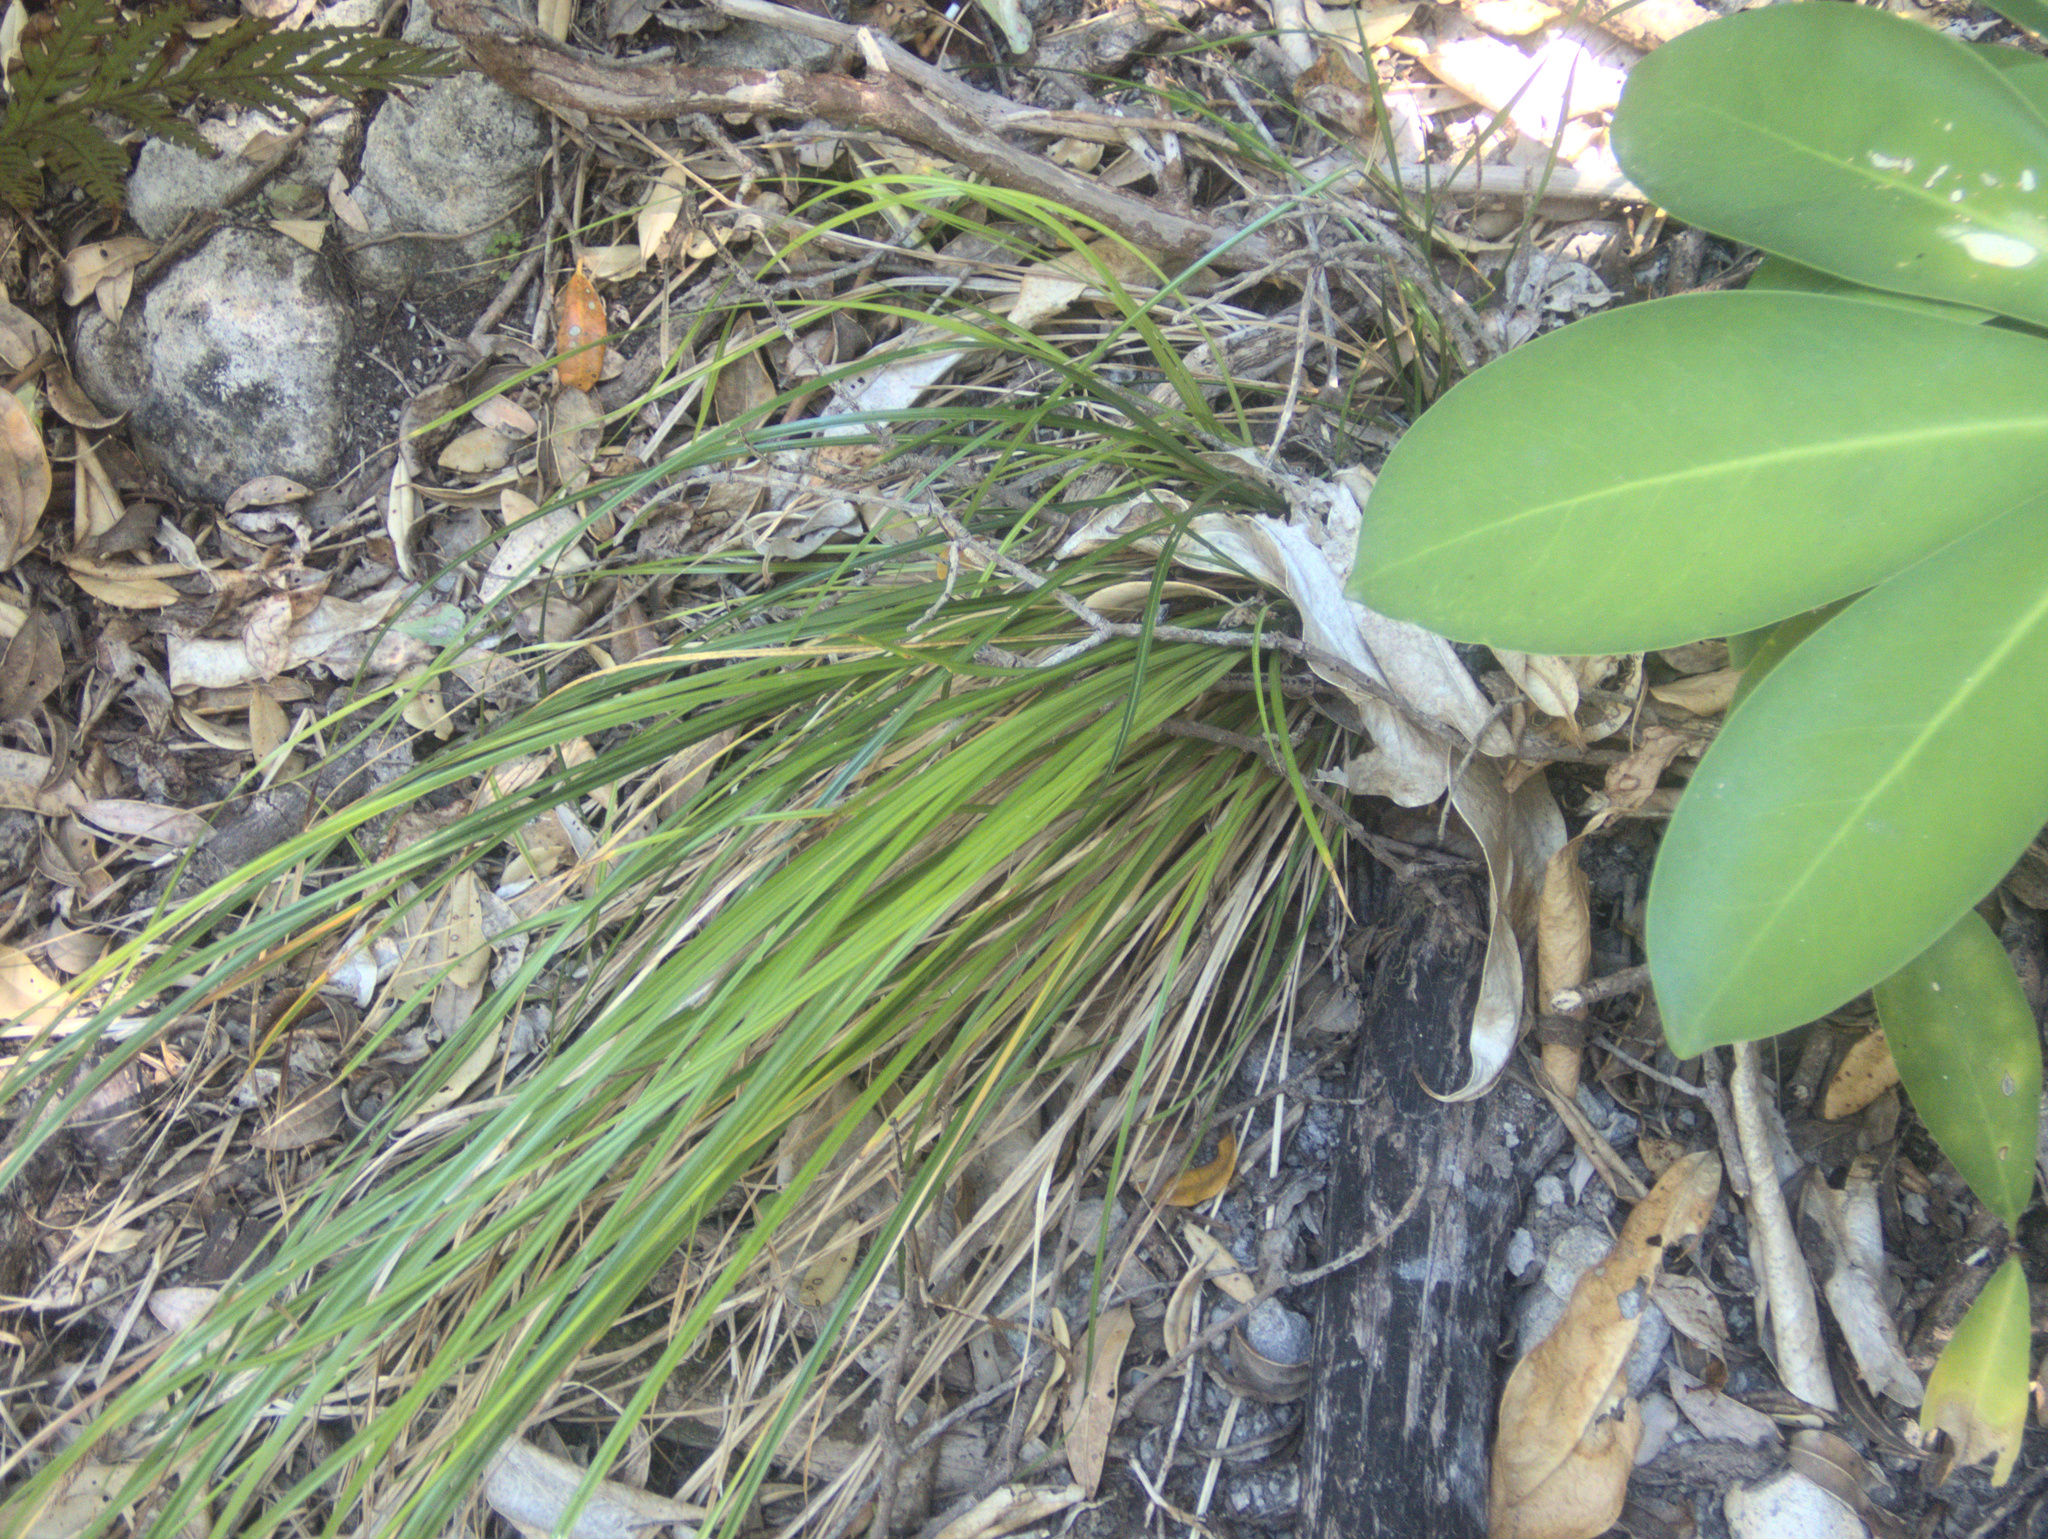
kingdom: Plantae
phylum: Tracheophyta
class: Liliopsida
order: Poales
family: Cyperaceae
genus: Carex
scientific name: Carex flagellifera
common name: Glen murray tussock
